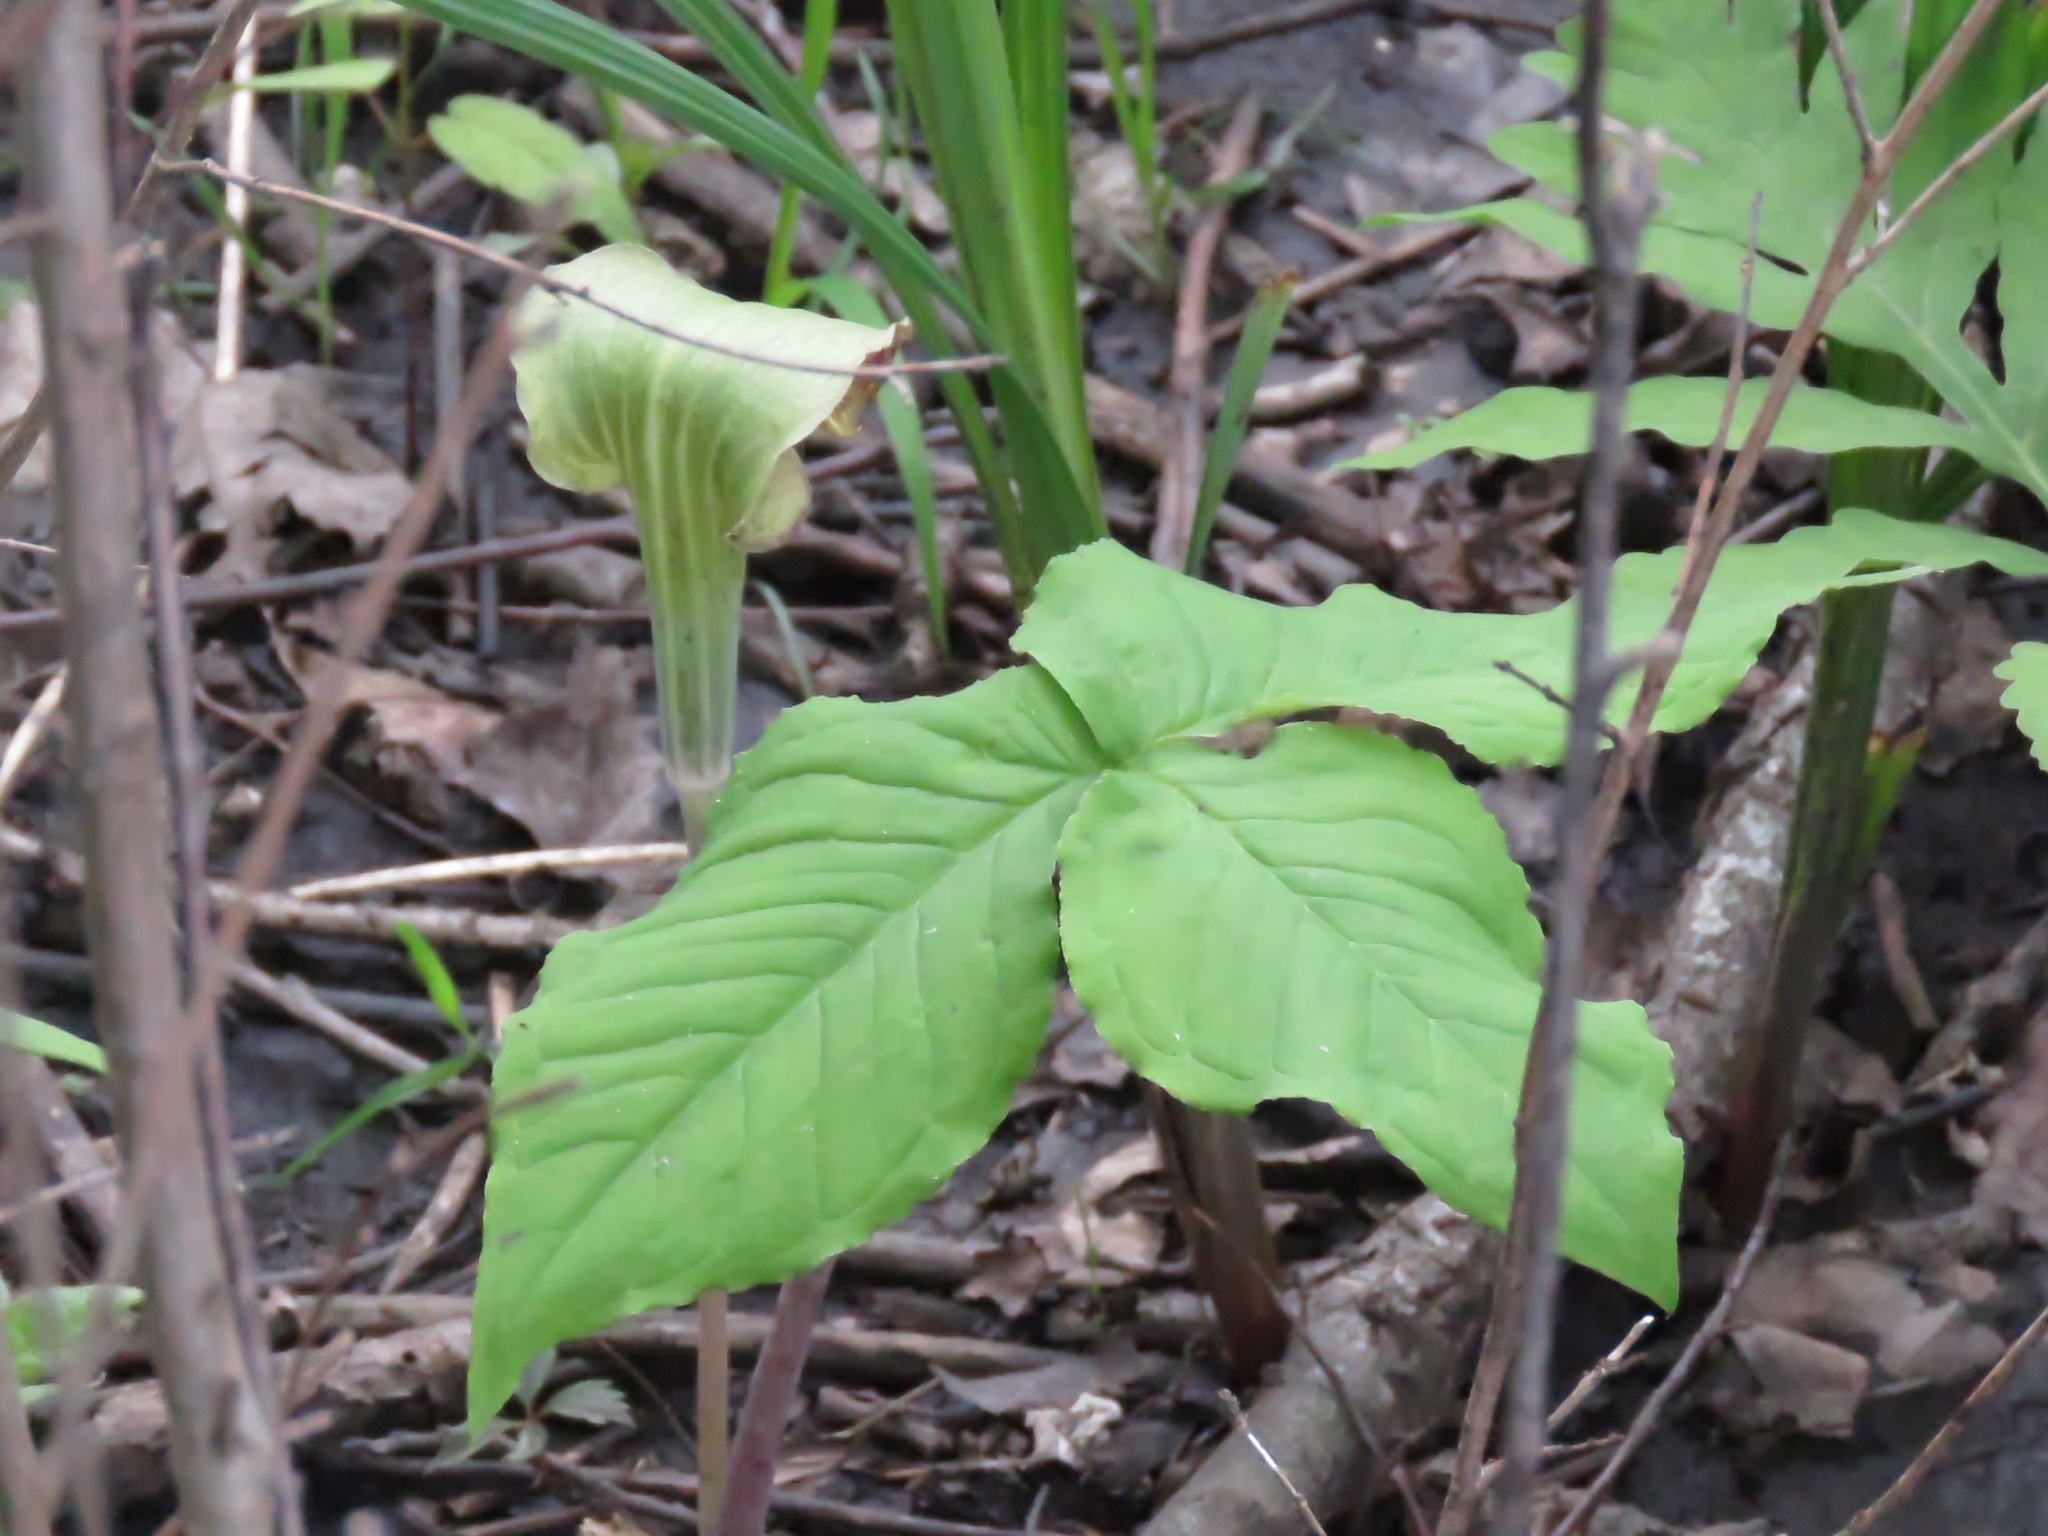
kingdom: Plantae
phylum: Tracheophyta
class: Liliopsida
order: Alismatales
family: Araceae
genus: Arisaema
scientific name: Arisaema triphyllum
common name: Jack-in-the-pulpit
